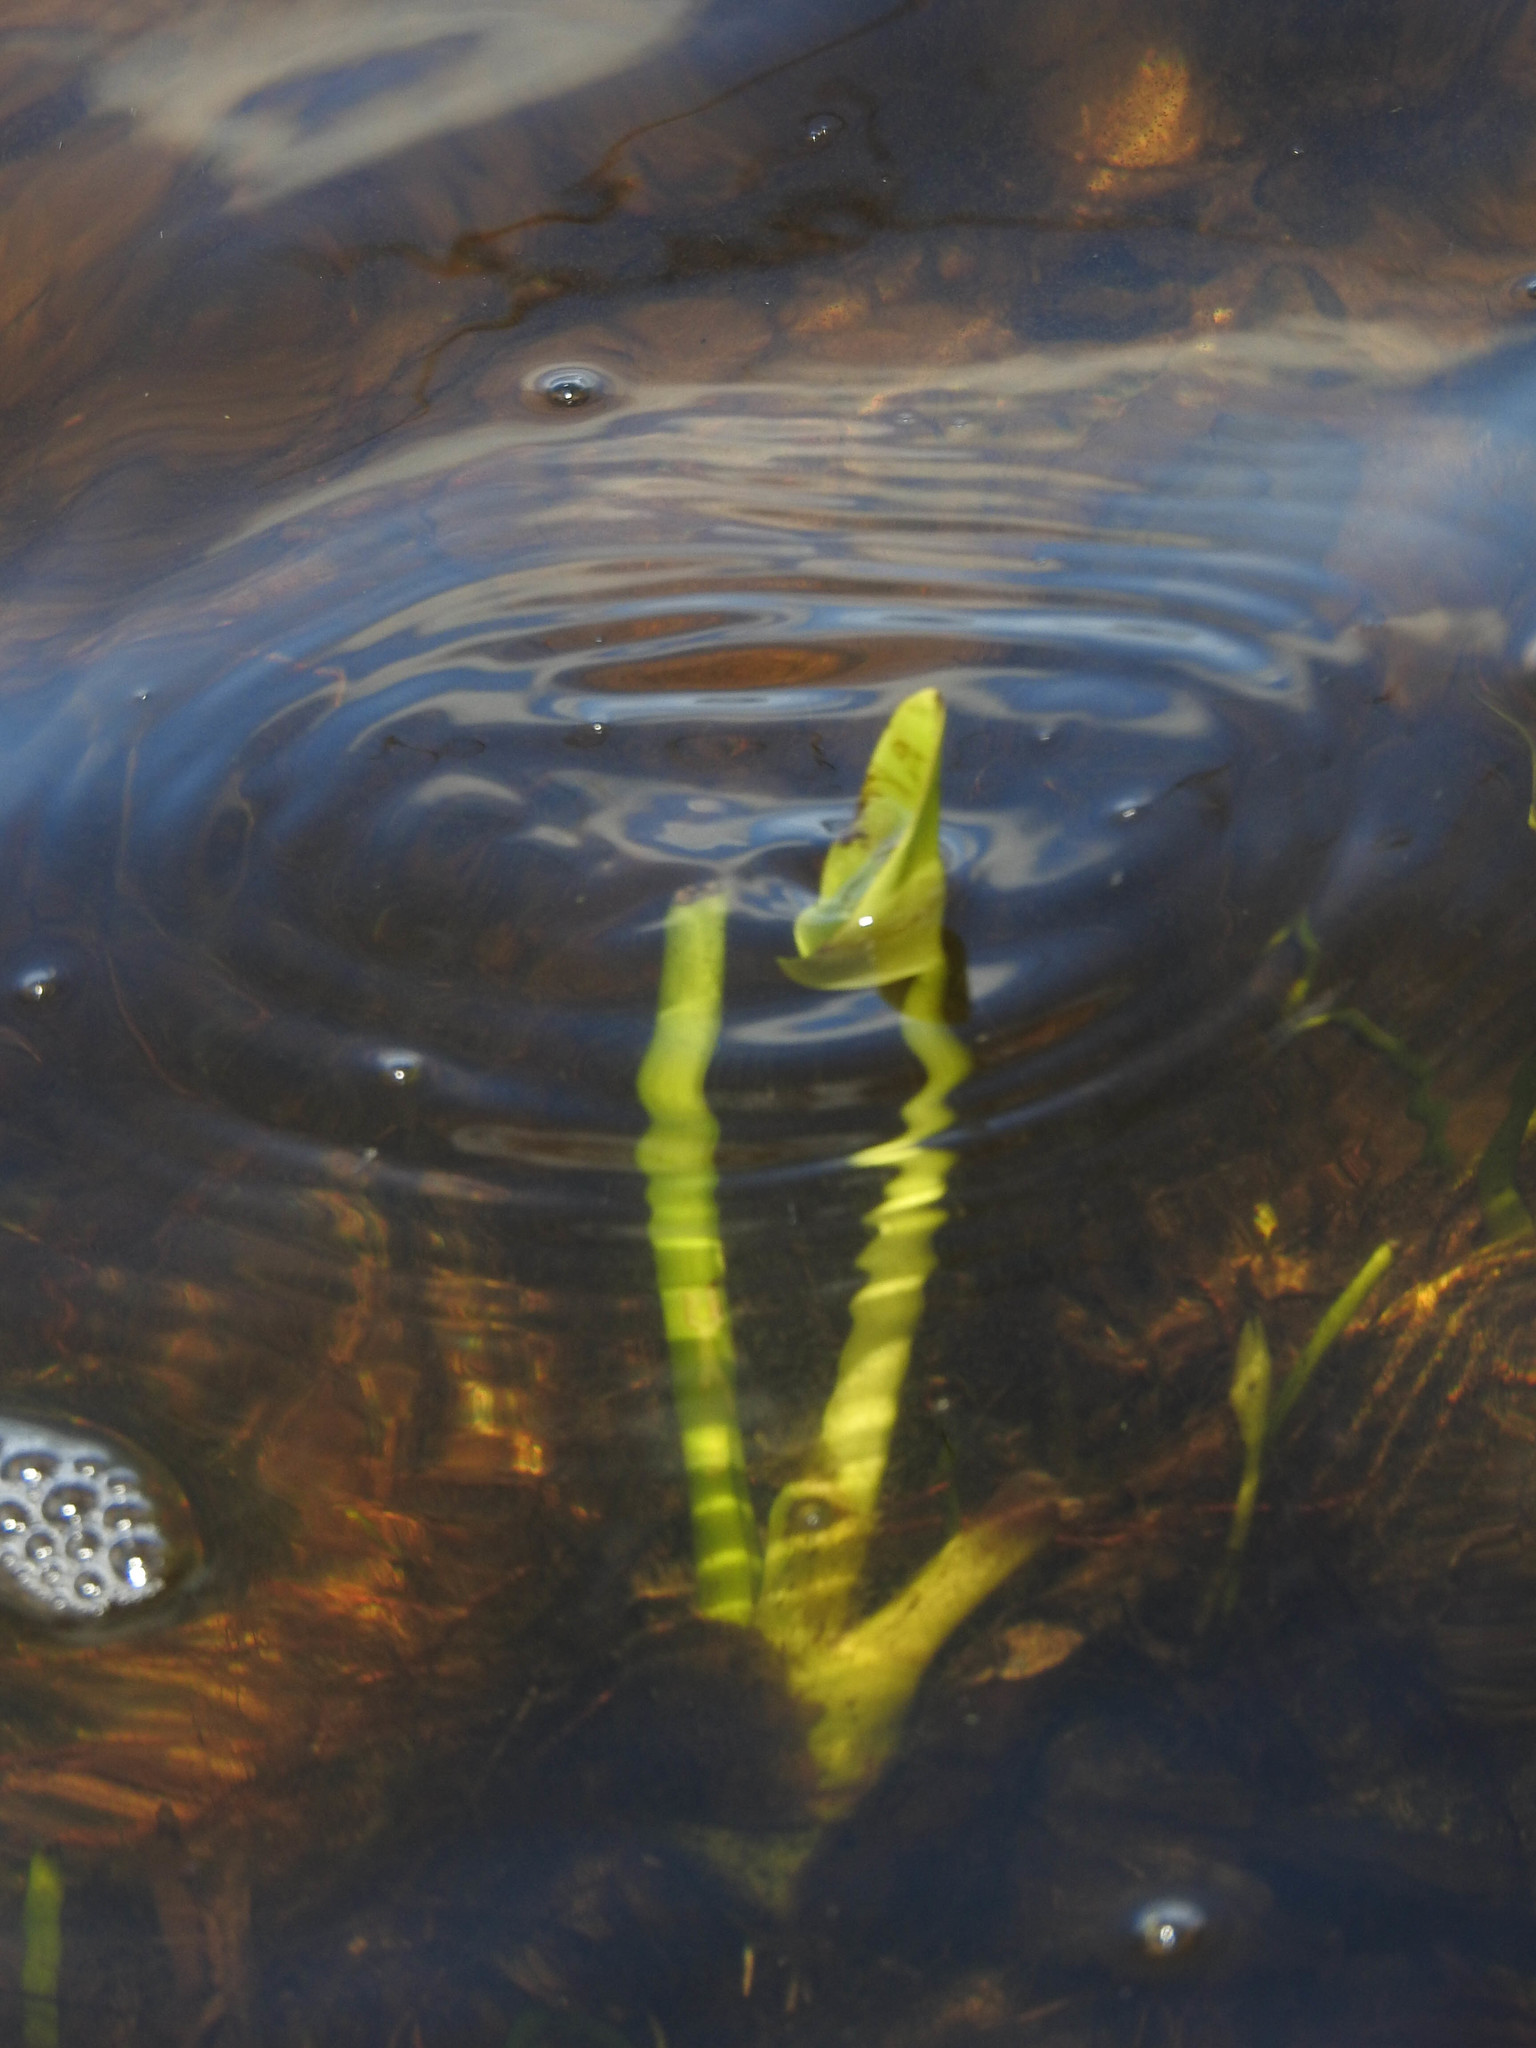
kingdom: Plantae
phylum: Tracheophyta
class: Liliopsida
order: Alismatales
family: Araceae
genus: Peltandra
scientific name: Peltandra virginica
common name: Arrow arum
